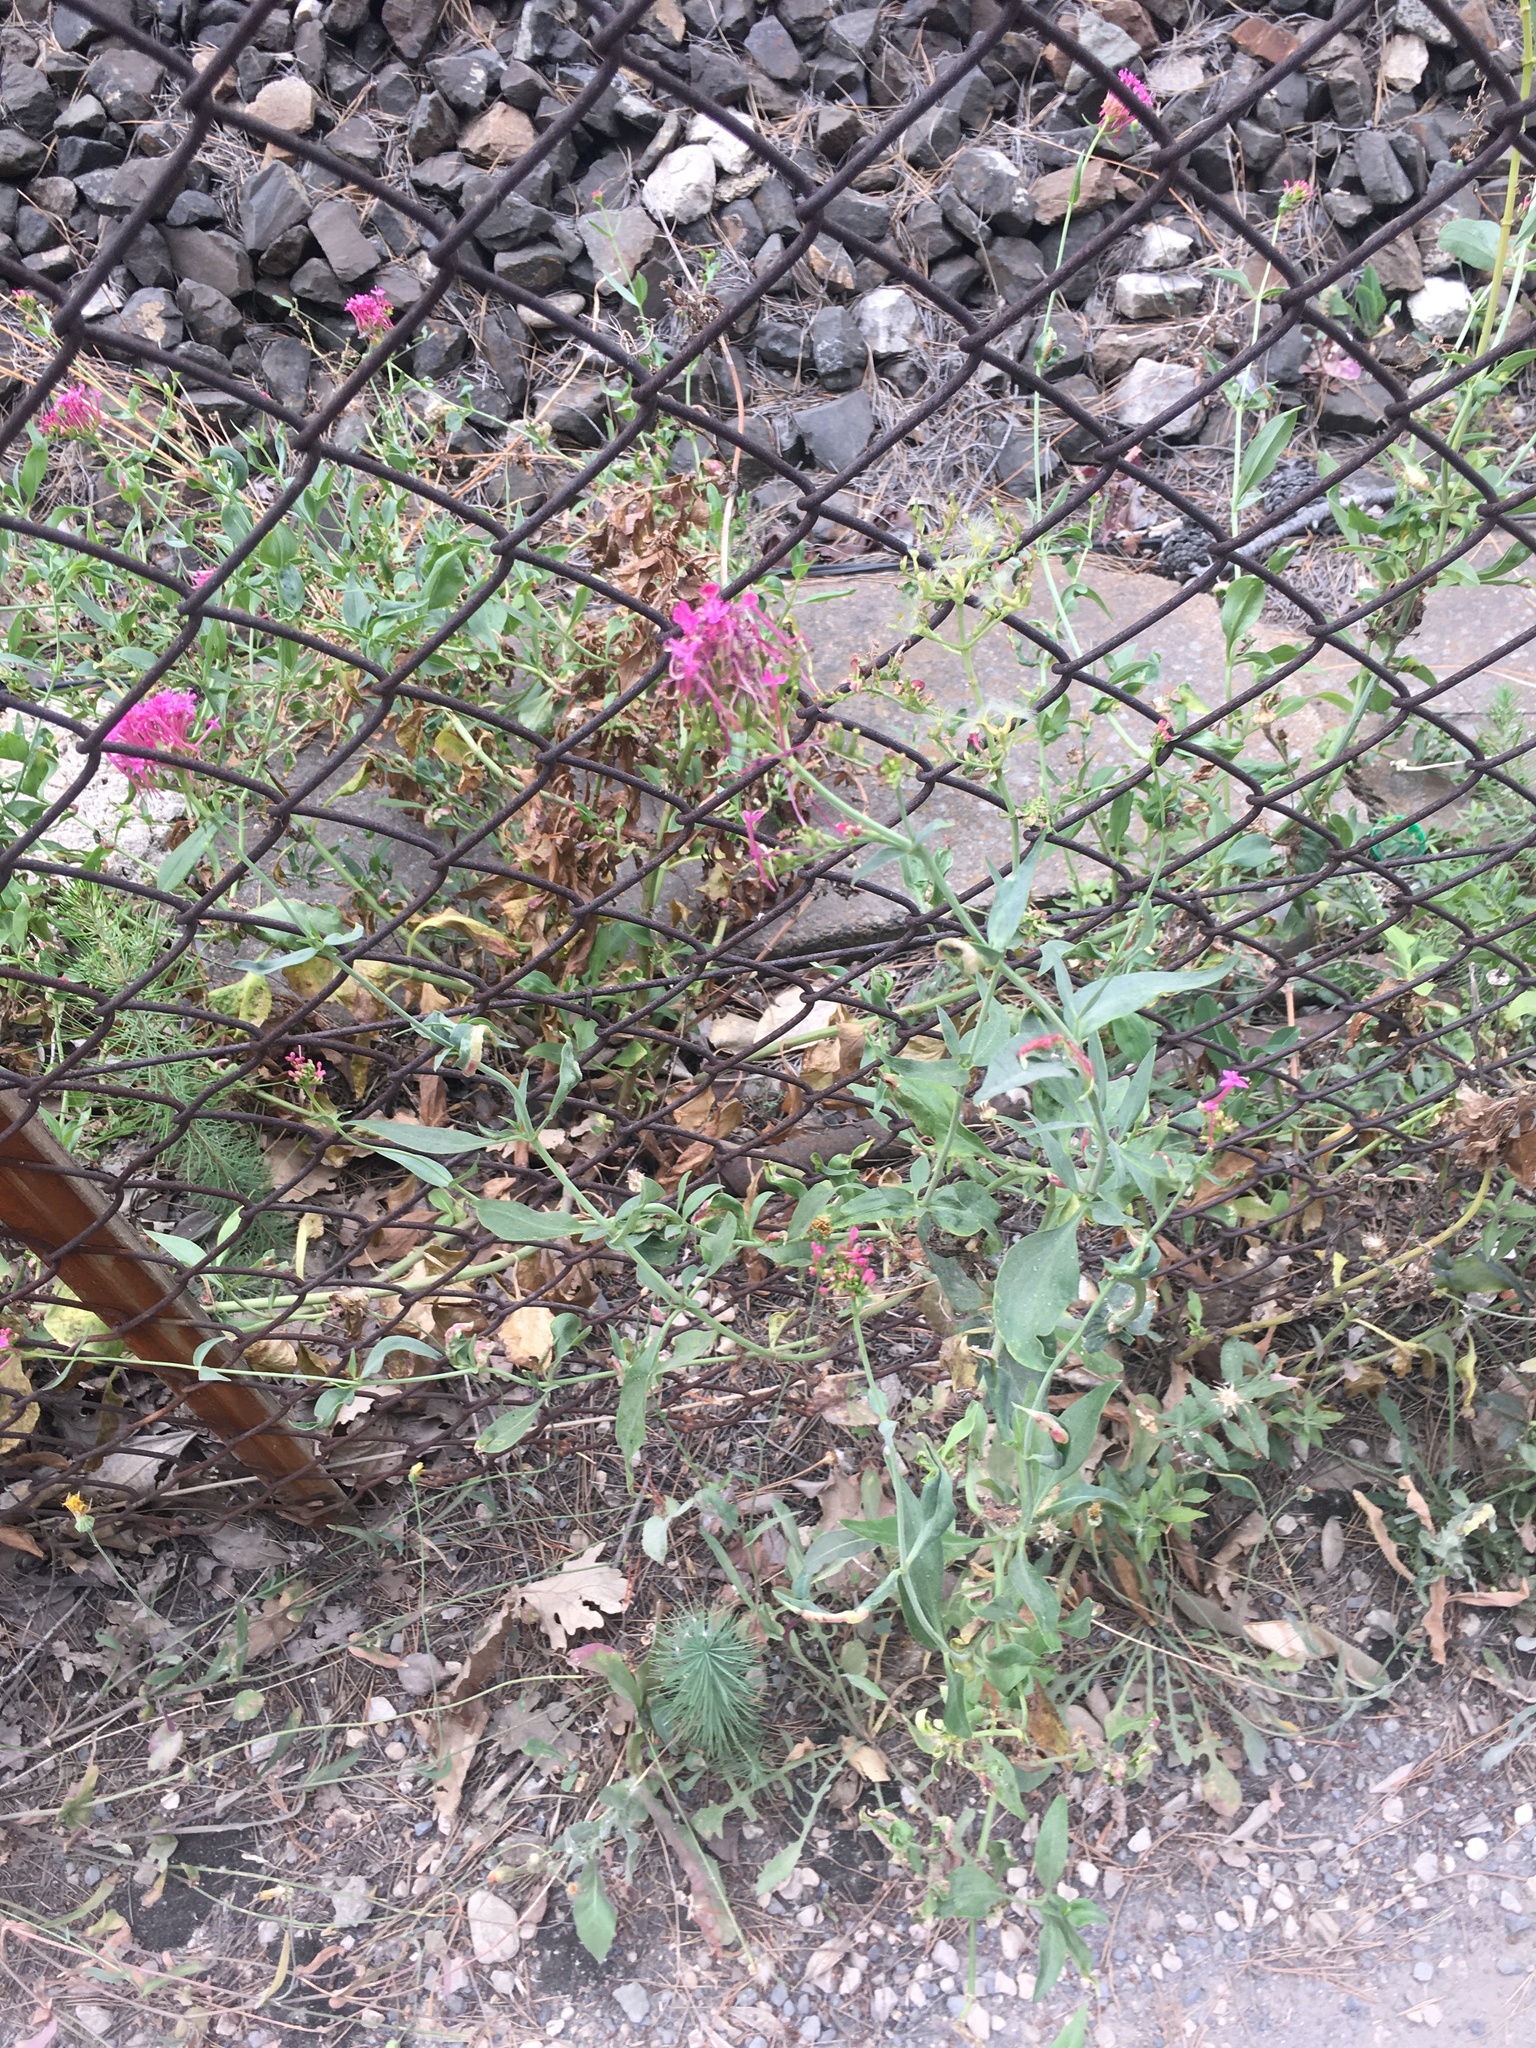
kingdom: Plantae
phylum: Tracheophyta
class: Magnoliopsida
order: Dipsacales
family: Caprifoliaceae
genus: Centranthus
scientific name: Centranthus ruber
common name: Red valerian
